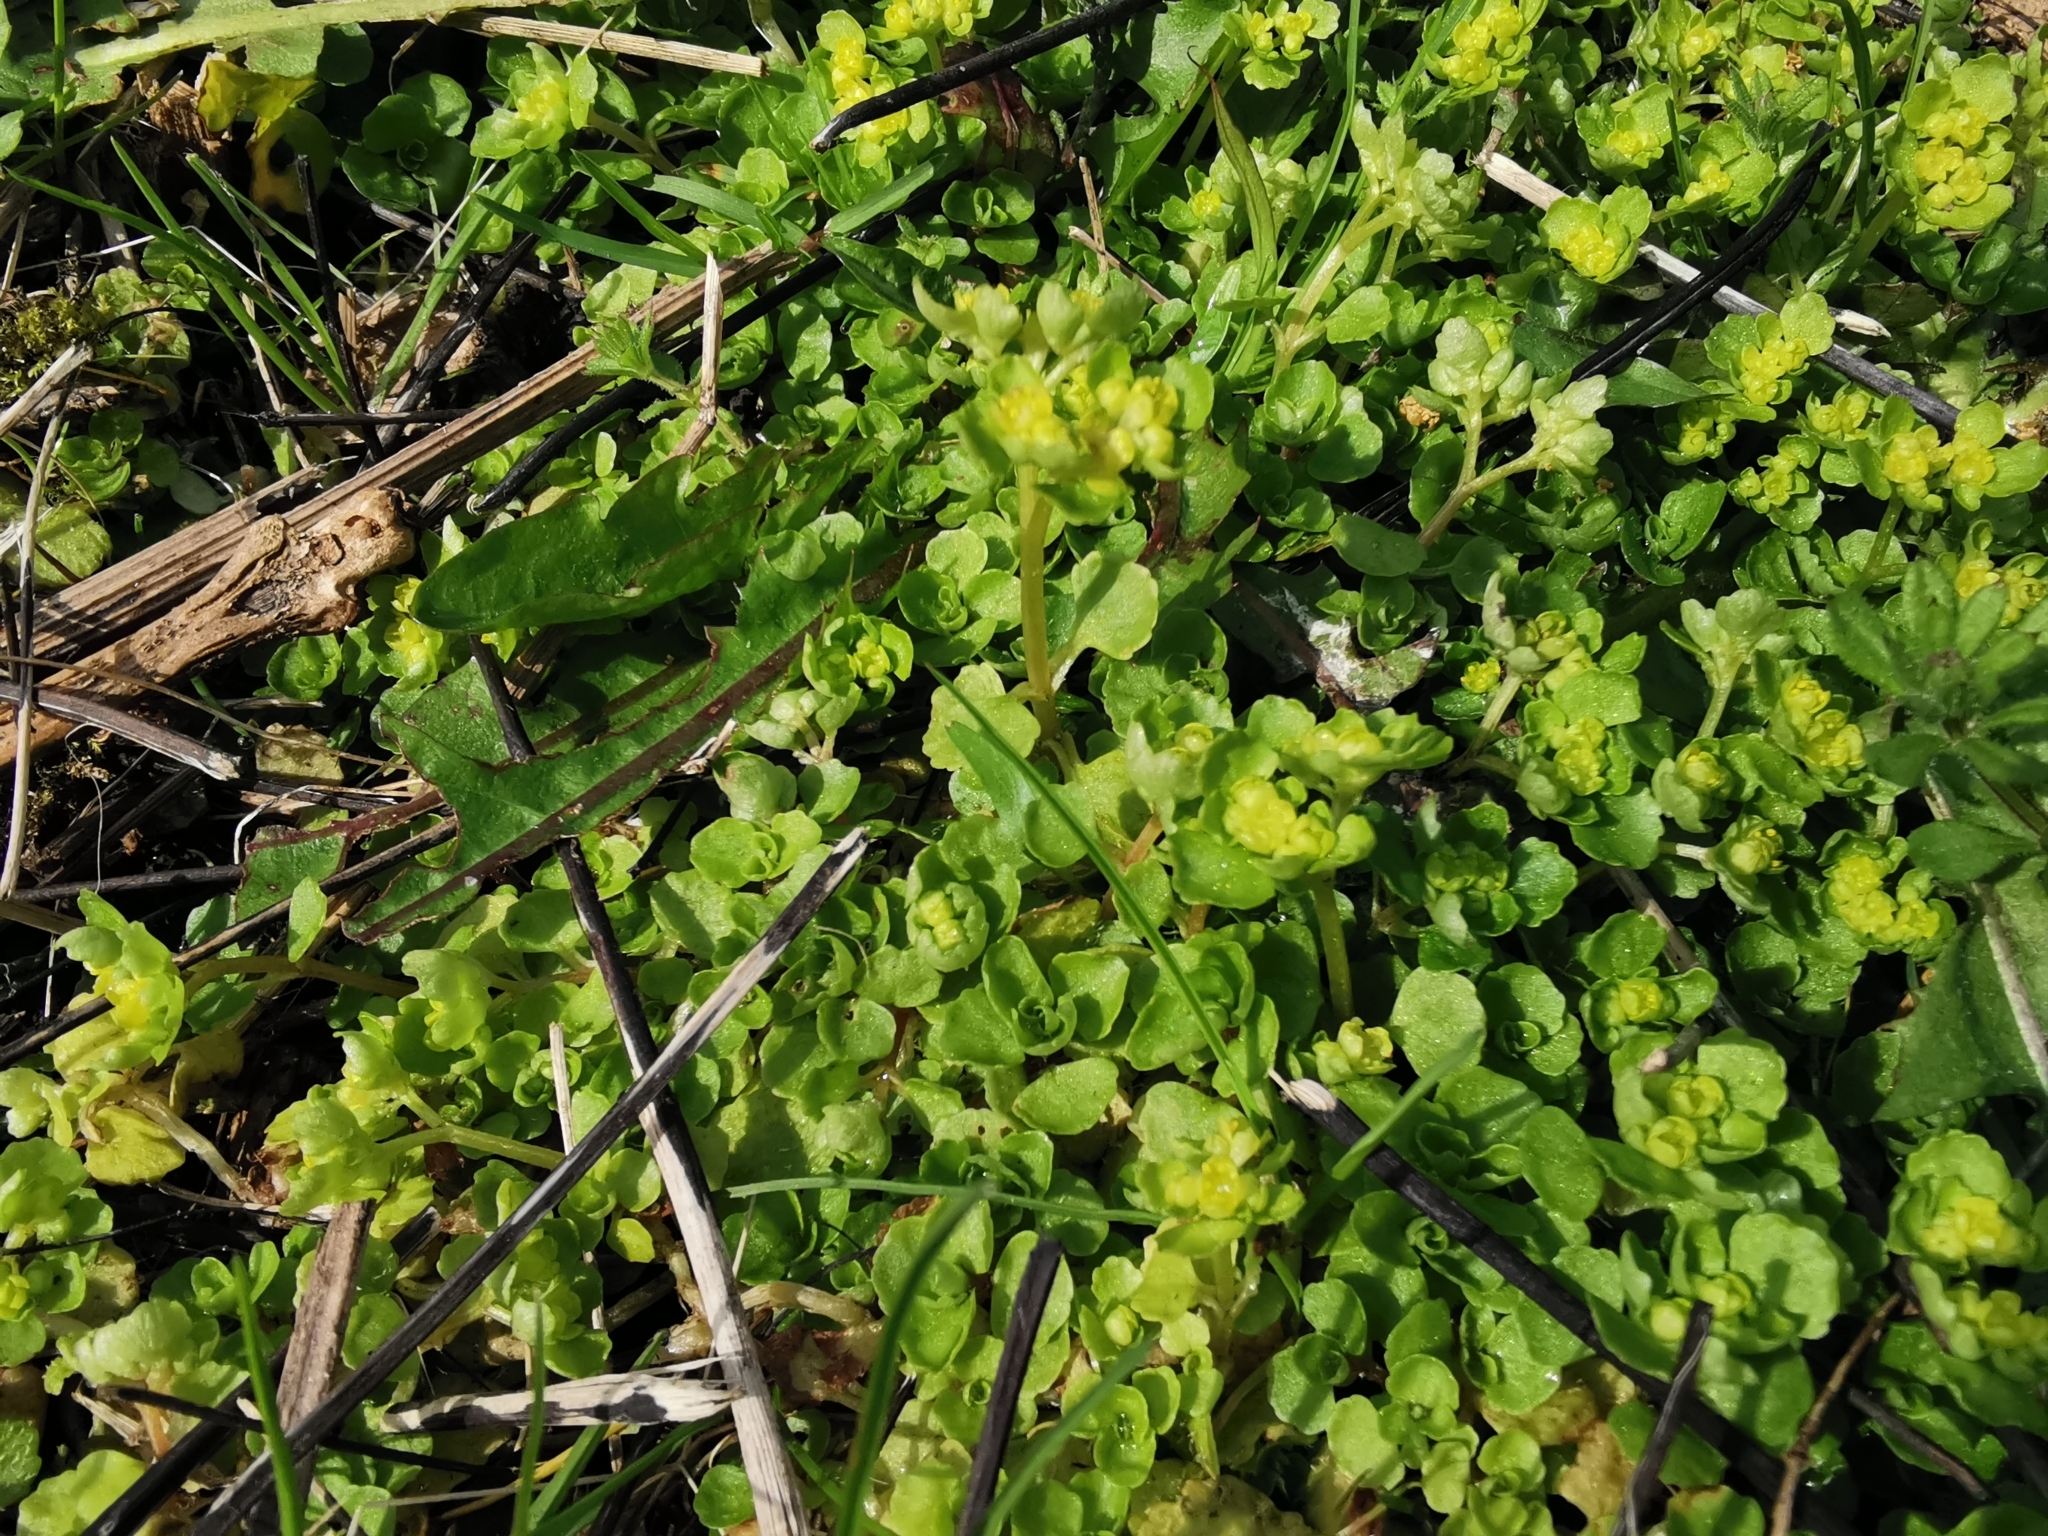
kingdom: Plantae
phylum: Tracheophyta
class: Magnoliopsida
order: Saxifragales
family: Saxifragaceae
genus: Chrysosplenium
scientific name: Chrysosplenium oppositifolium
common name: Opposite-leaved golden-saxifrage
